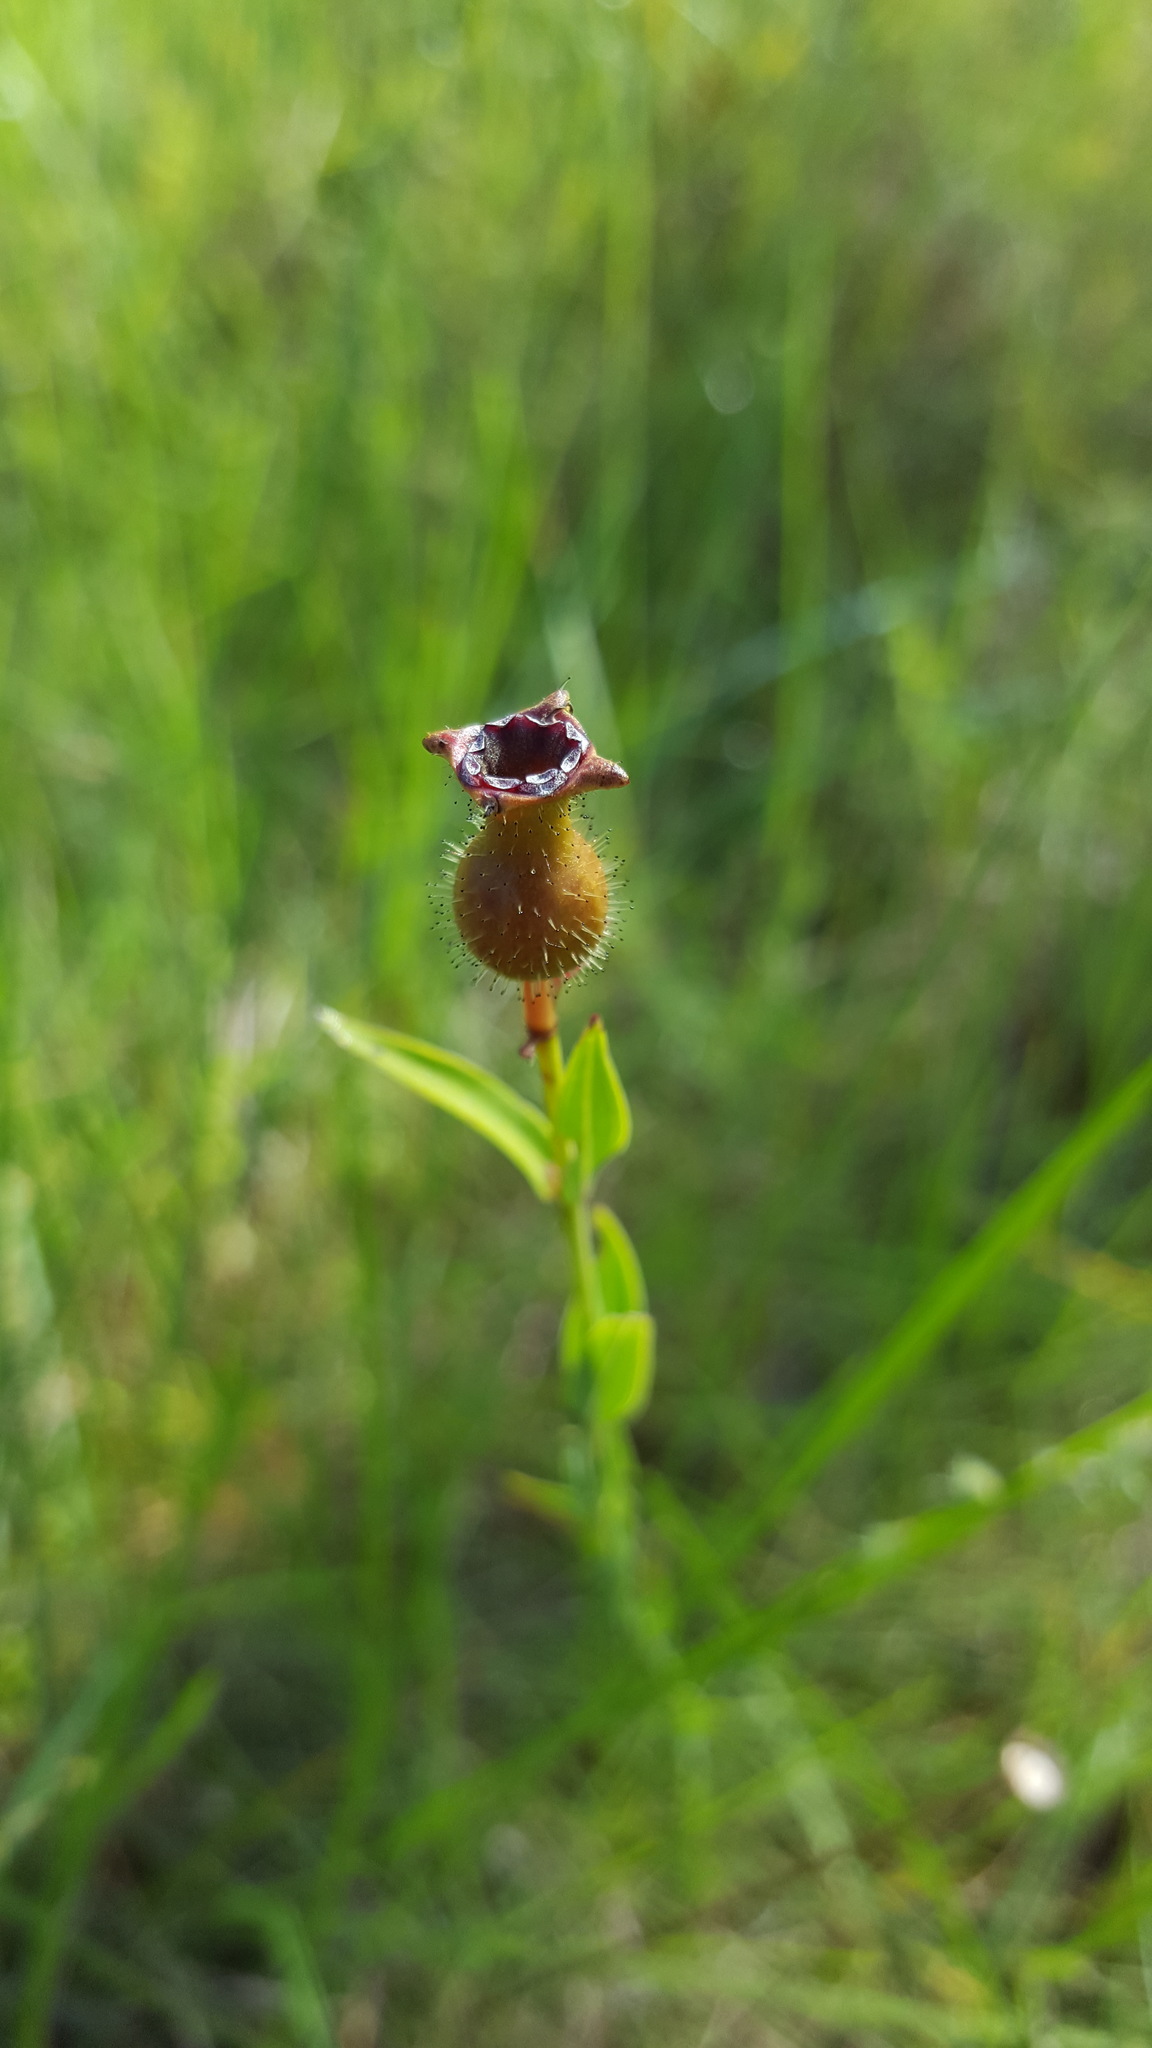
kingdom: Plantae
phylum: Tracheophyta
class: Magnoliopsida
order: Myrtales
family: Melastomataceae
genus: Rhexia
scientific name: Rhexia alifanus
